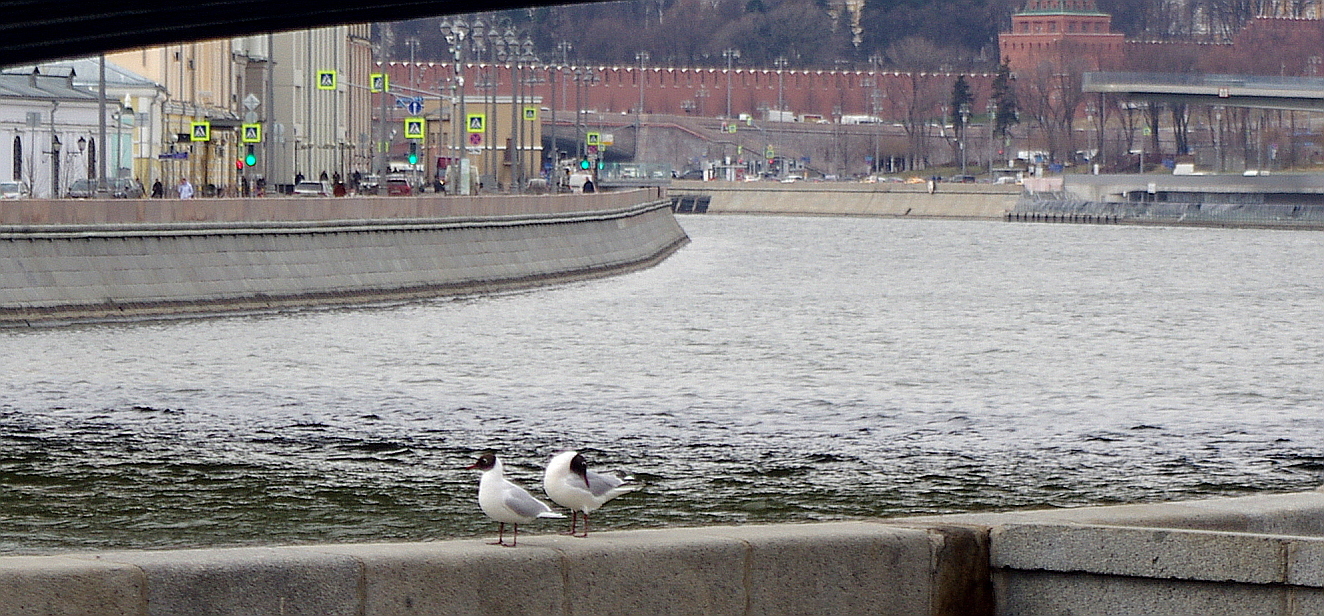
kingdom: Animalia
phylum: Chordata
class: Aves
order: Charadriiformes
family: Laridae
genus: Chroicocephalus
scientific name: Chroicocephalus ridibundus
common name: Black-headed gull
